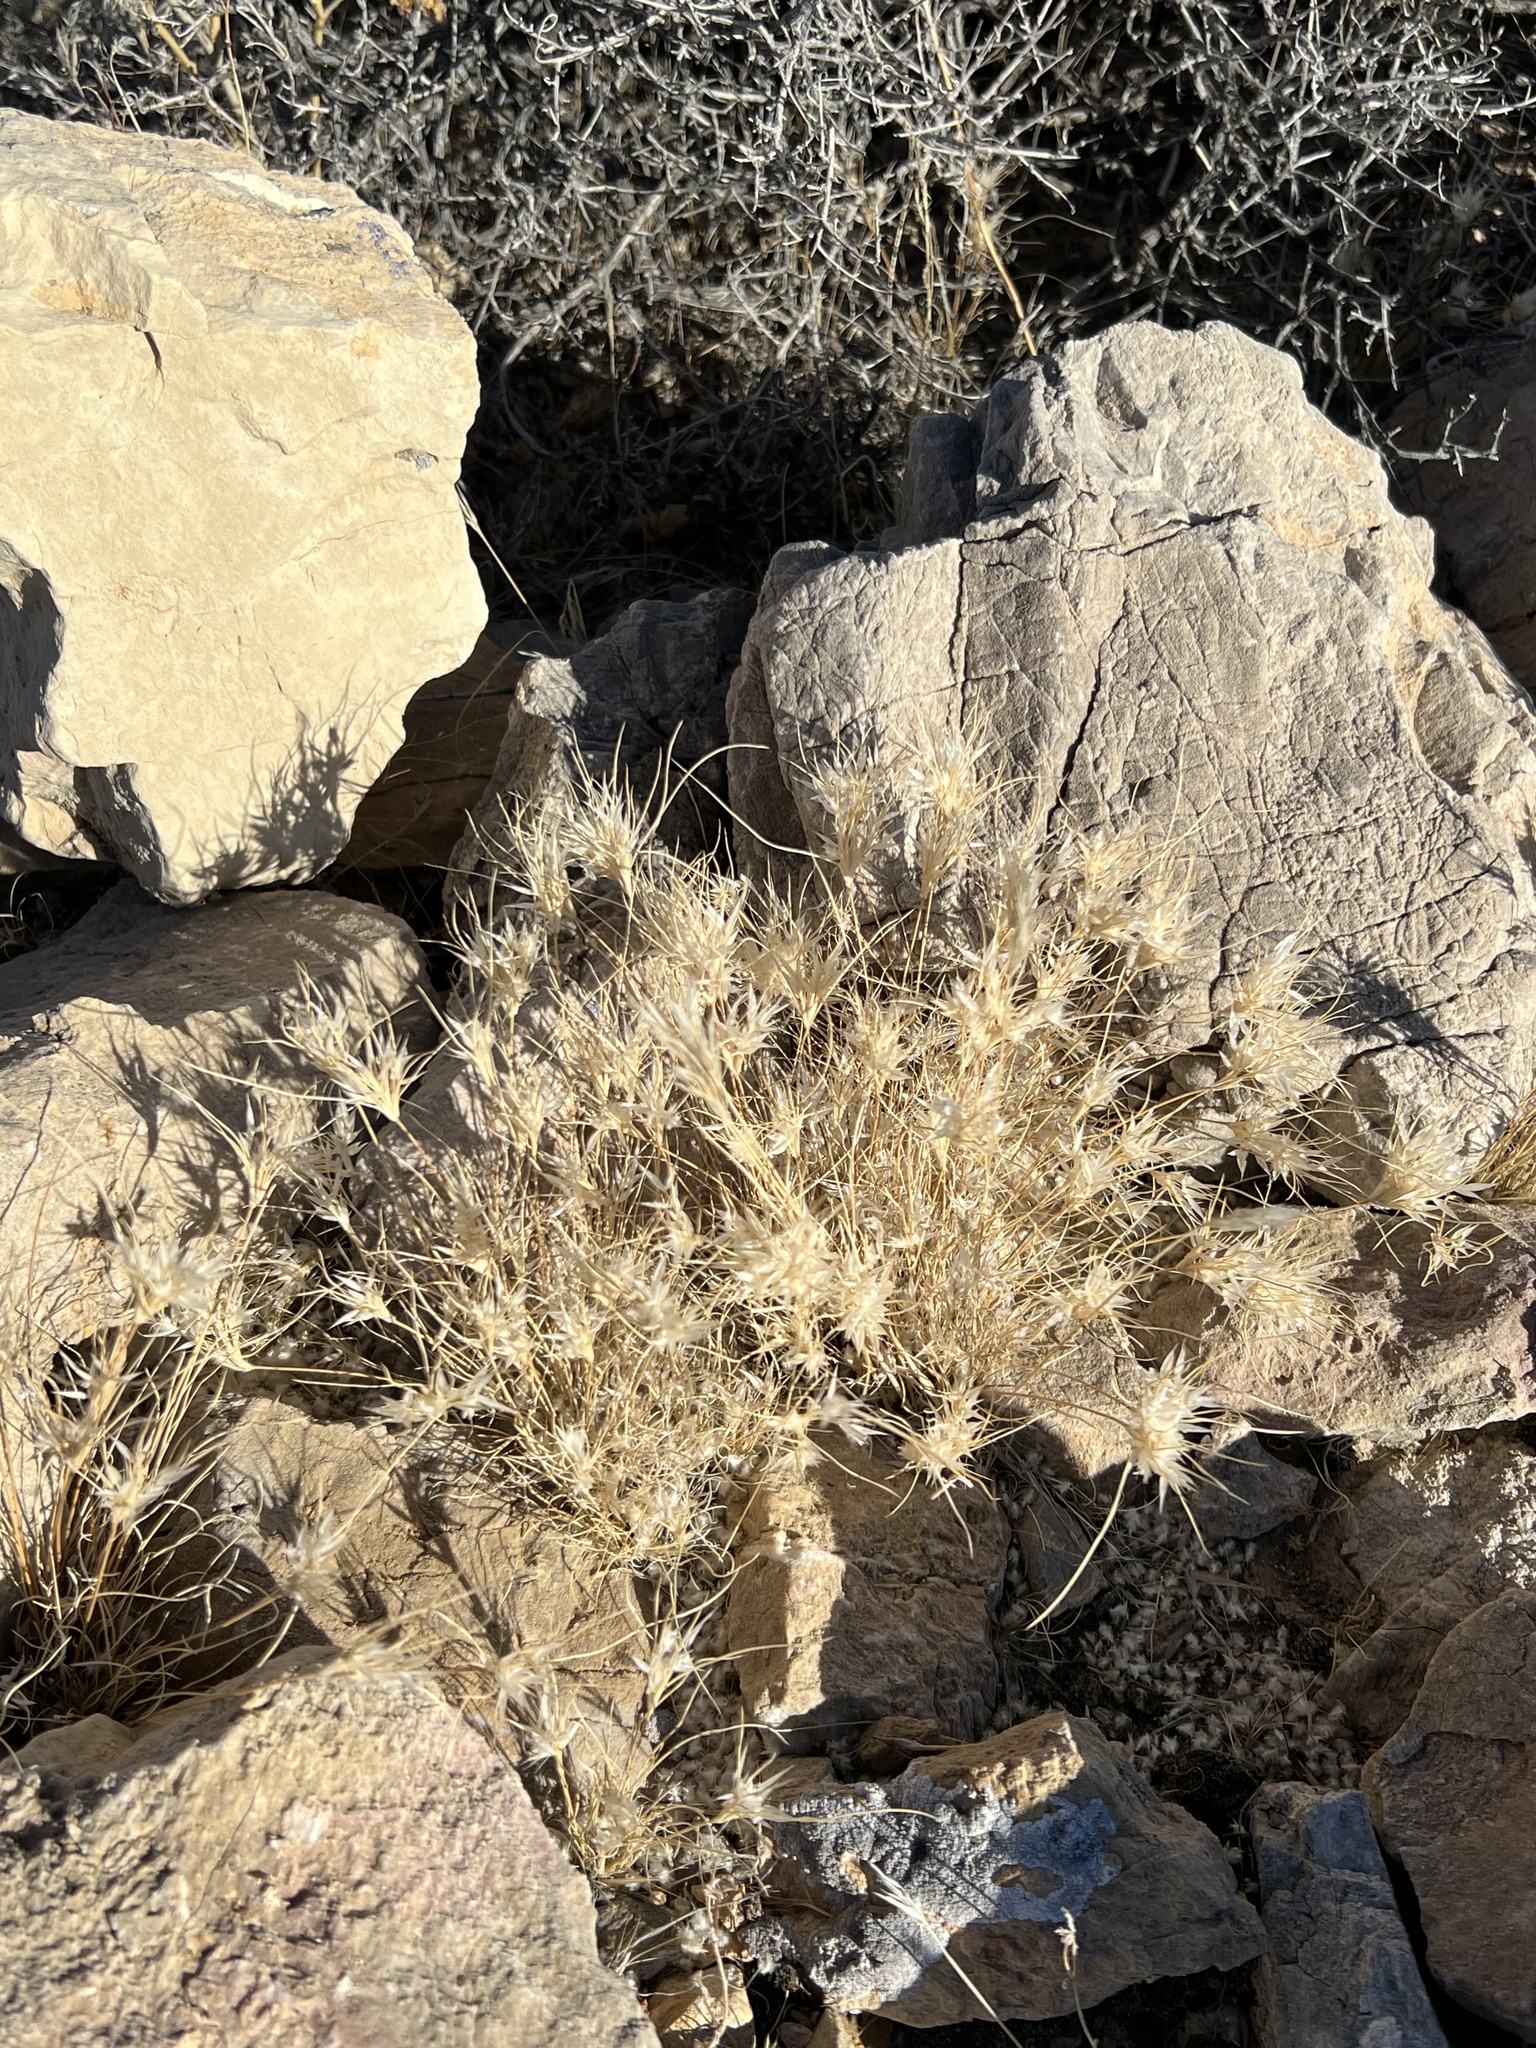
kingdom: Plantae
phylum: Tracheophyta
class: Liliopsida
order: Poales
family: Poaceae
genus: Dasyochloa
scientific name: Dasyochloa pulchella
